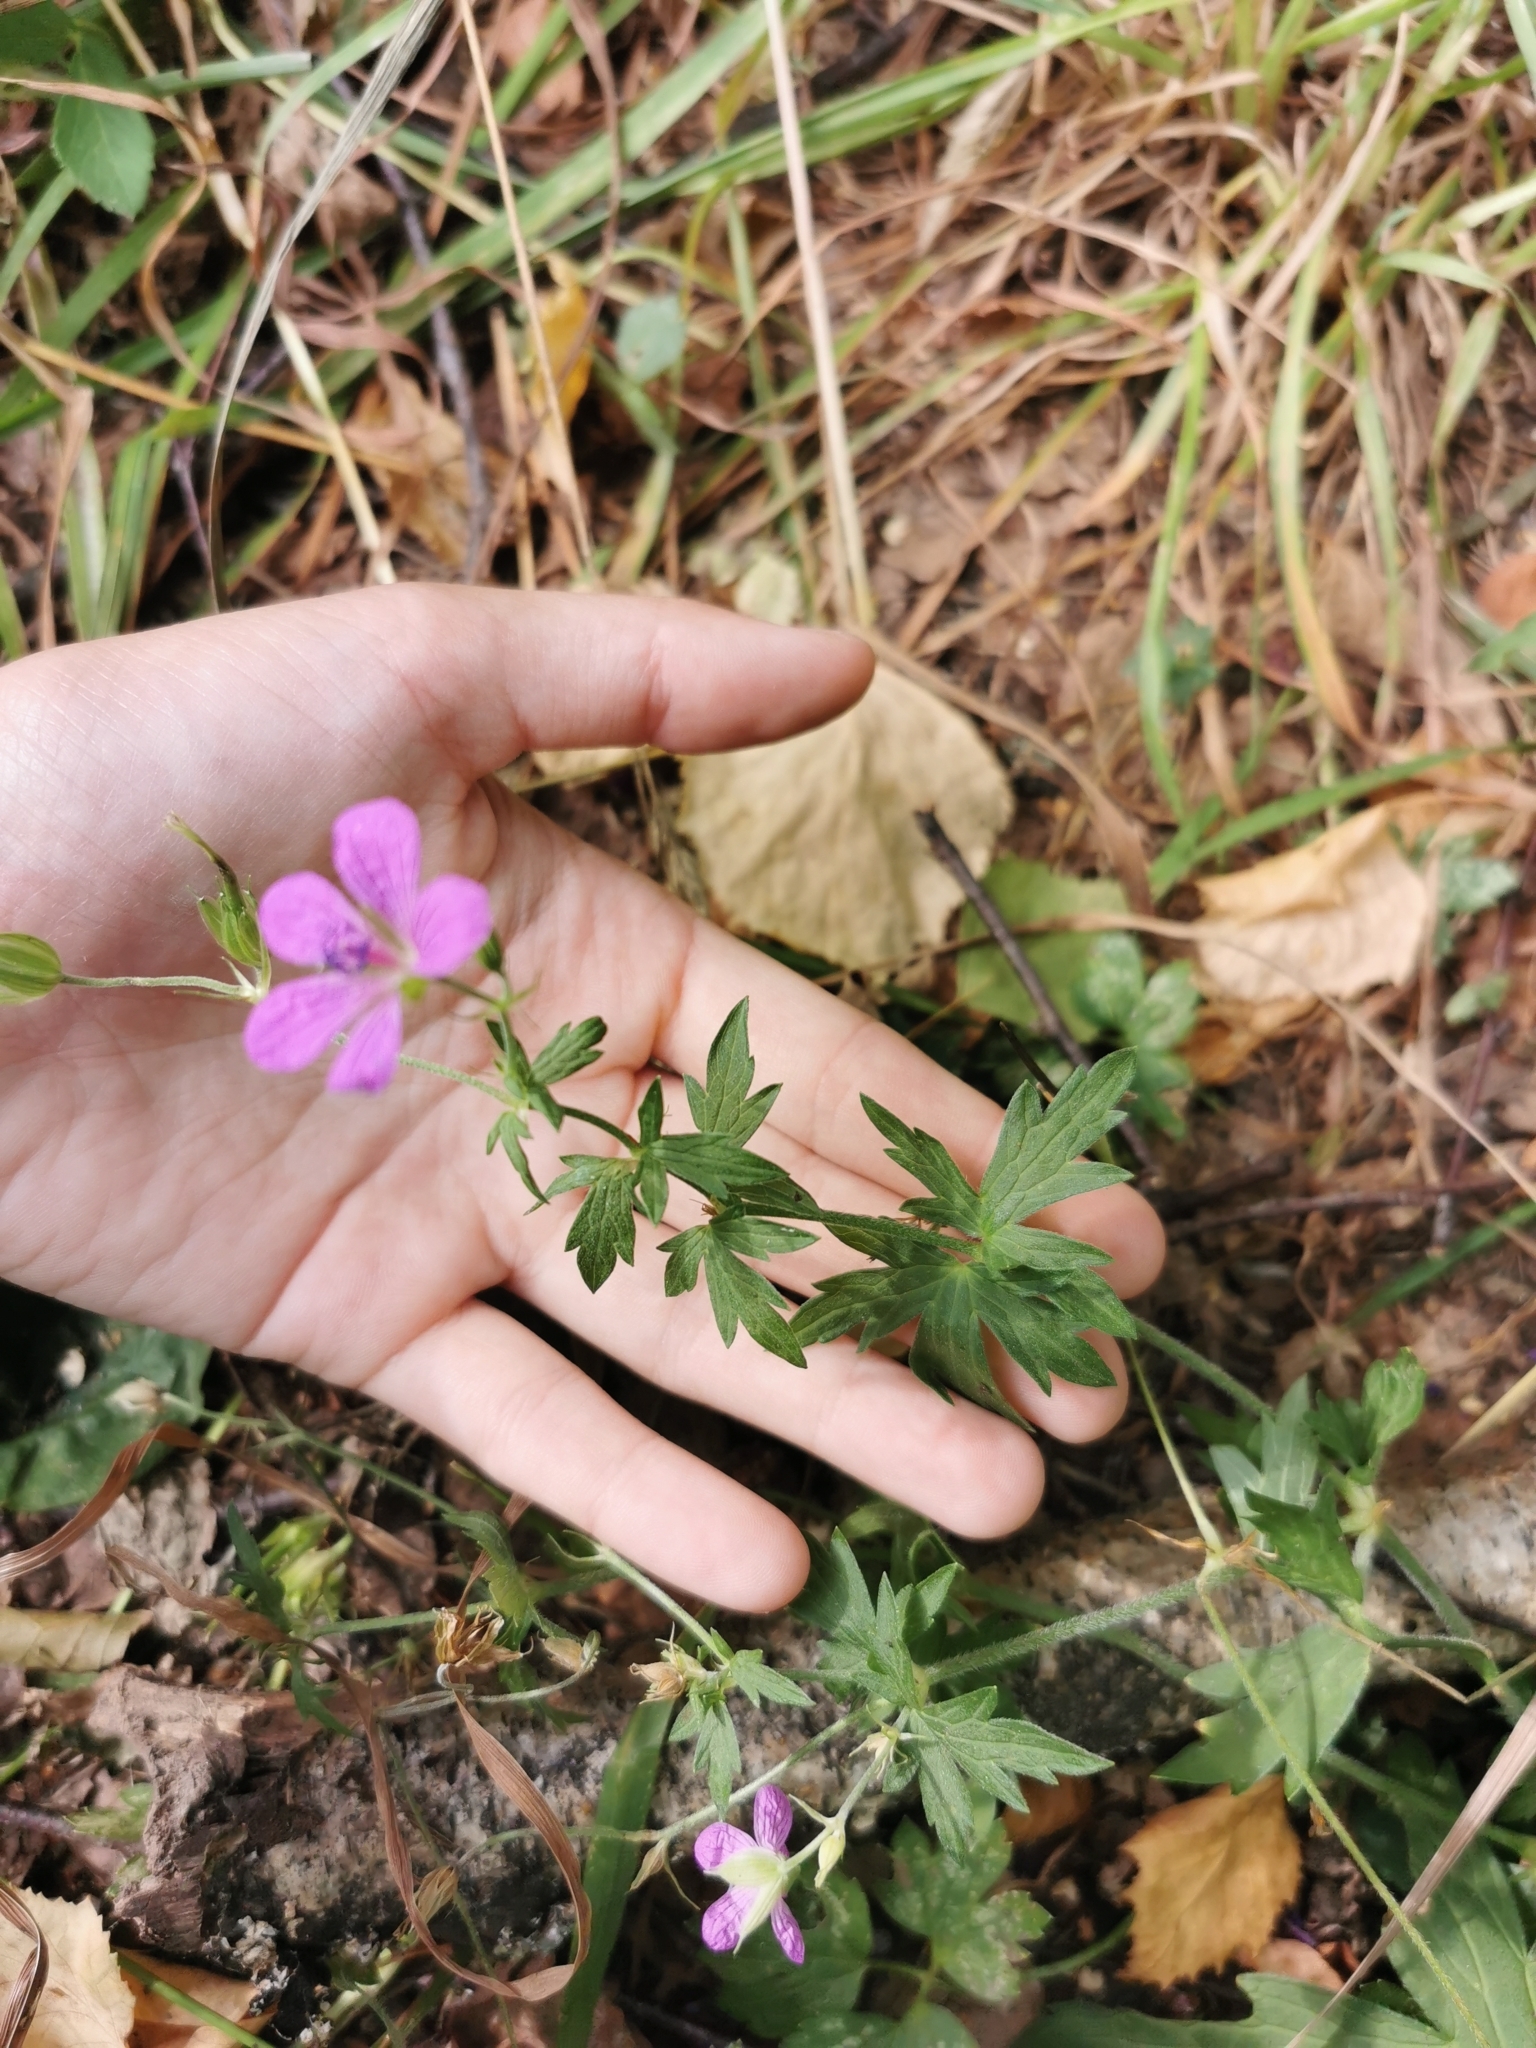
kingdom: Plantae
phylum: Tracheophyta
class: Magnoliopsida
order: Geraniales
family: Geraniaceae
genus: Geranium
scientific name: Geranium palustre
